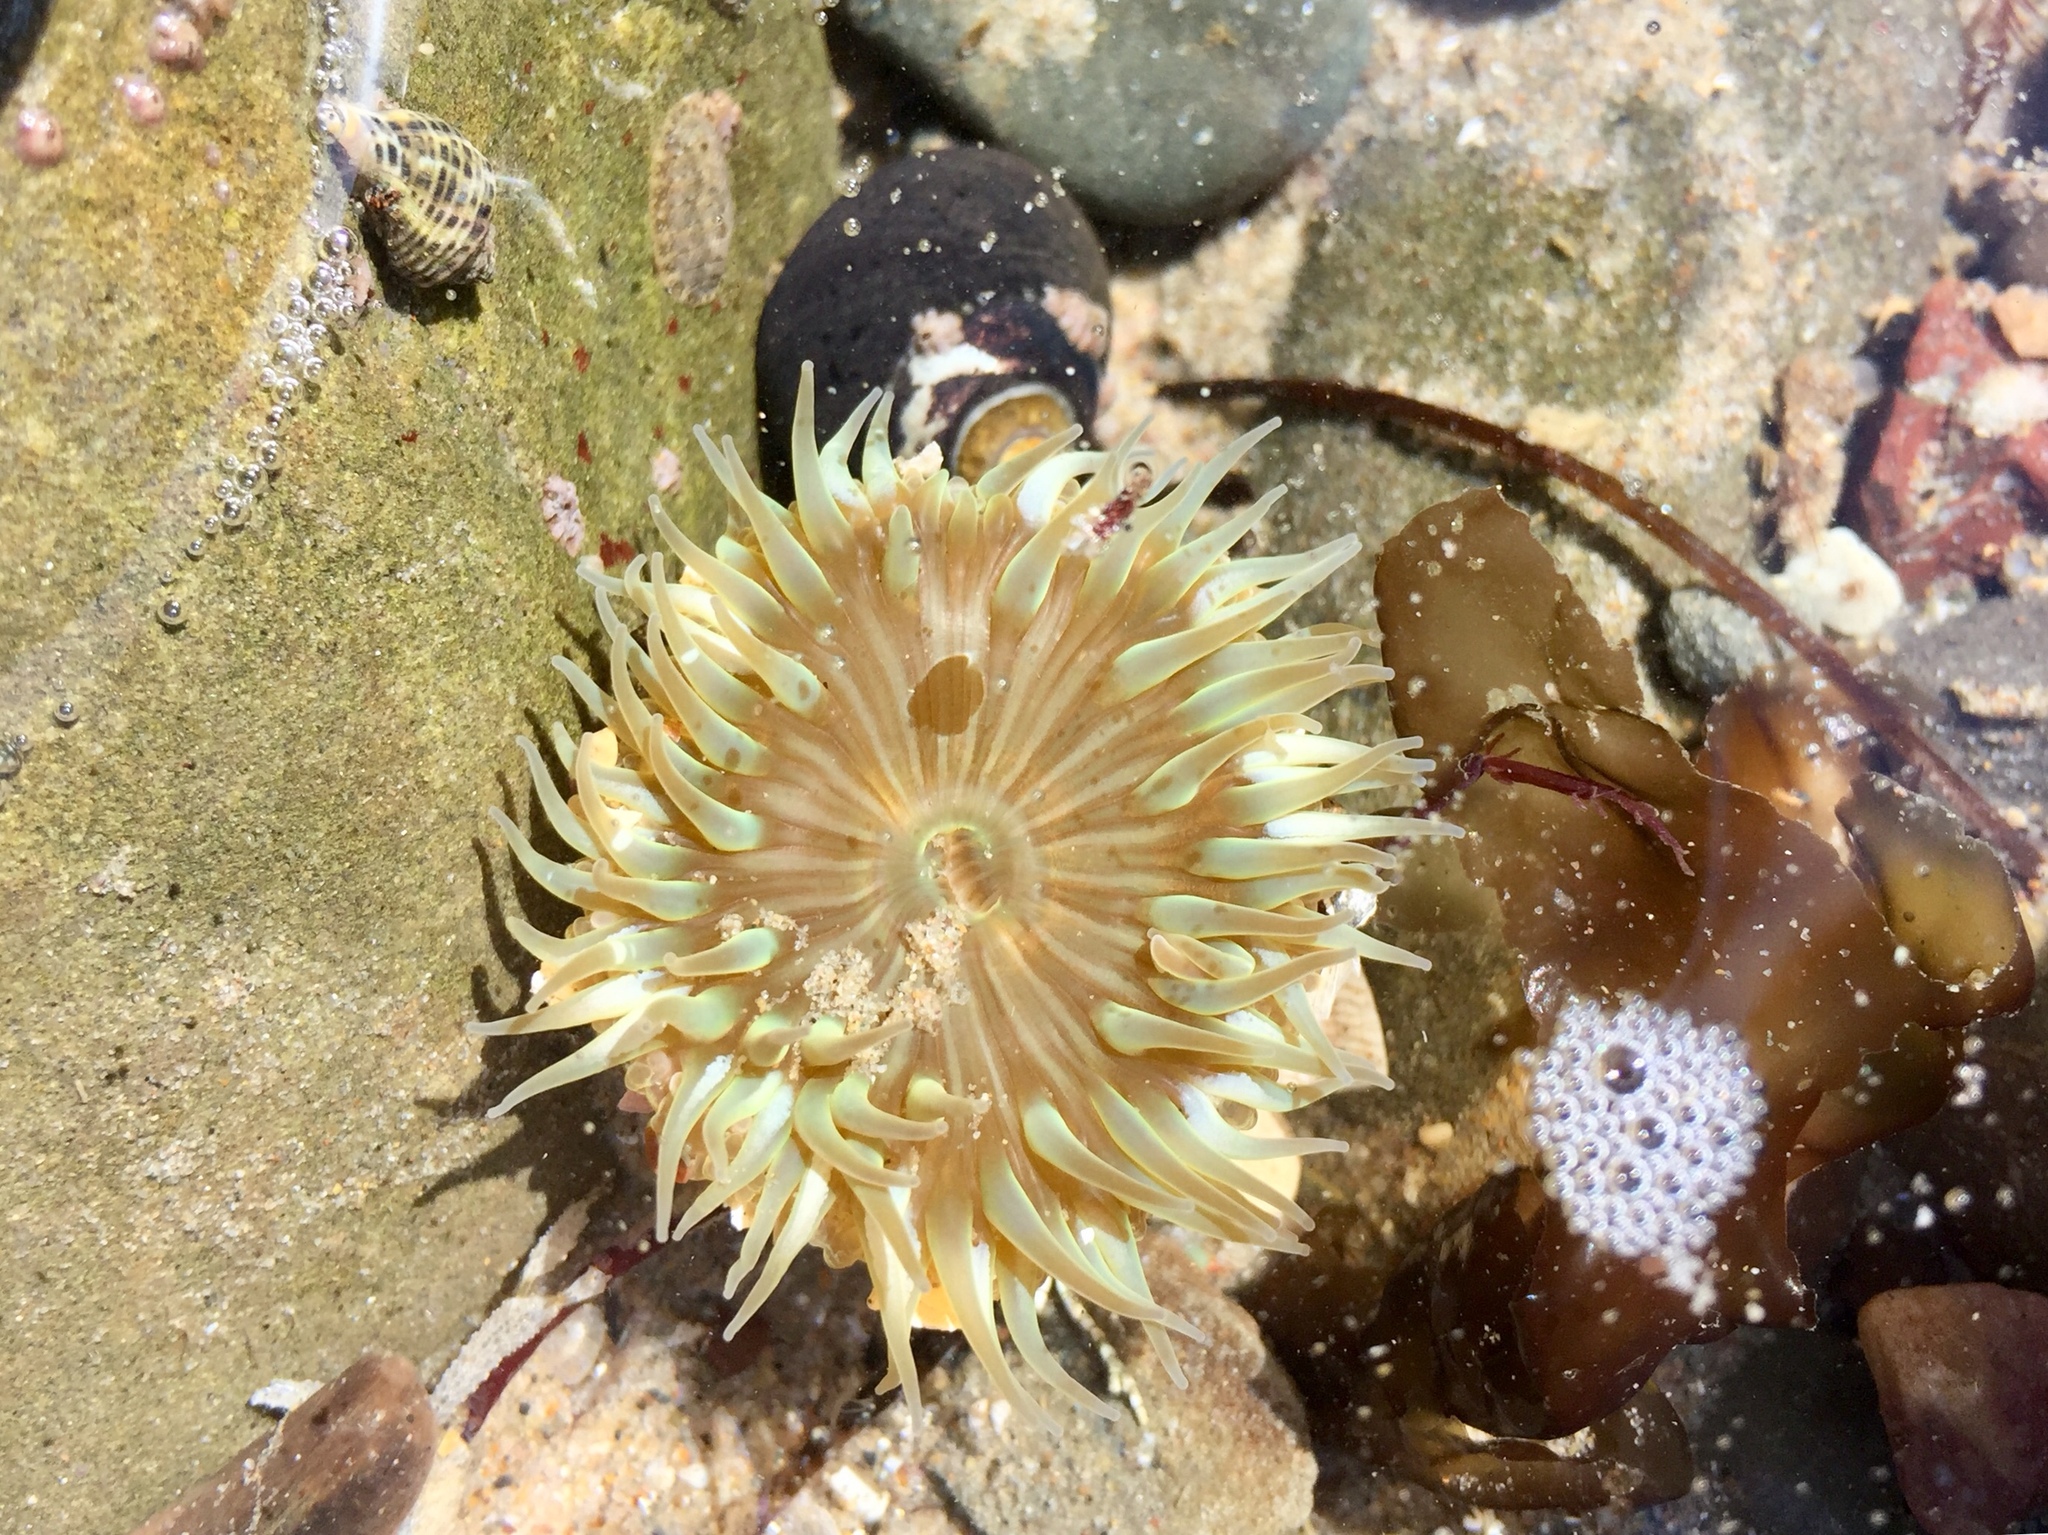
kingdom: Animalia
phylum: Cnidaria
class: Anthozoa
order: Actiniaria
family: Actiniidae
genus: Anthopleura
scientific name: Anthopleura sola
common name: Sun anemone
